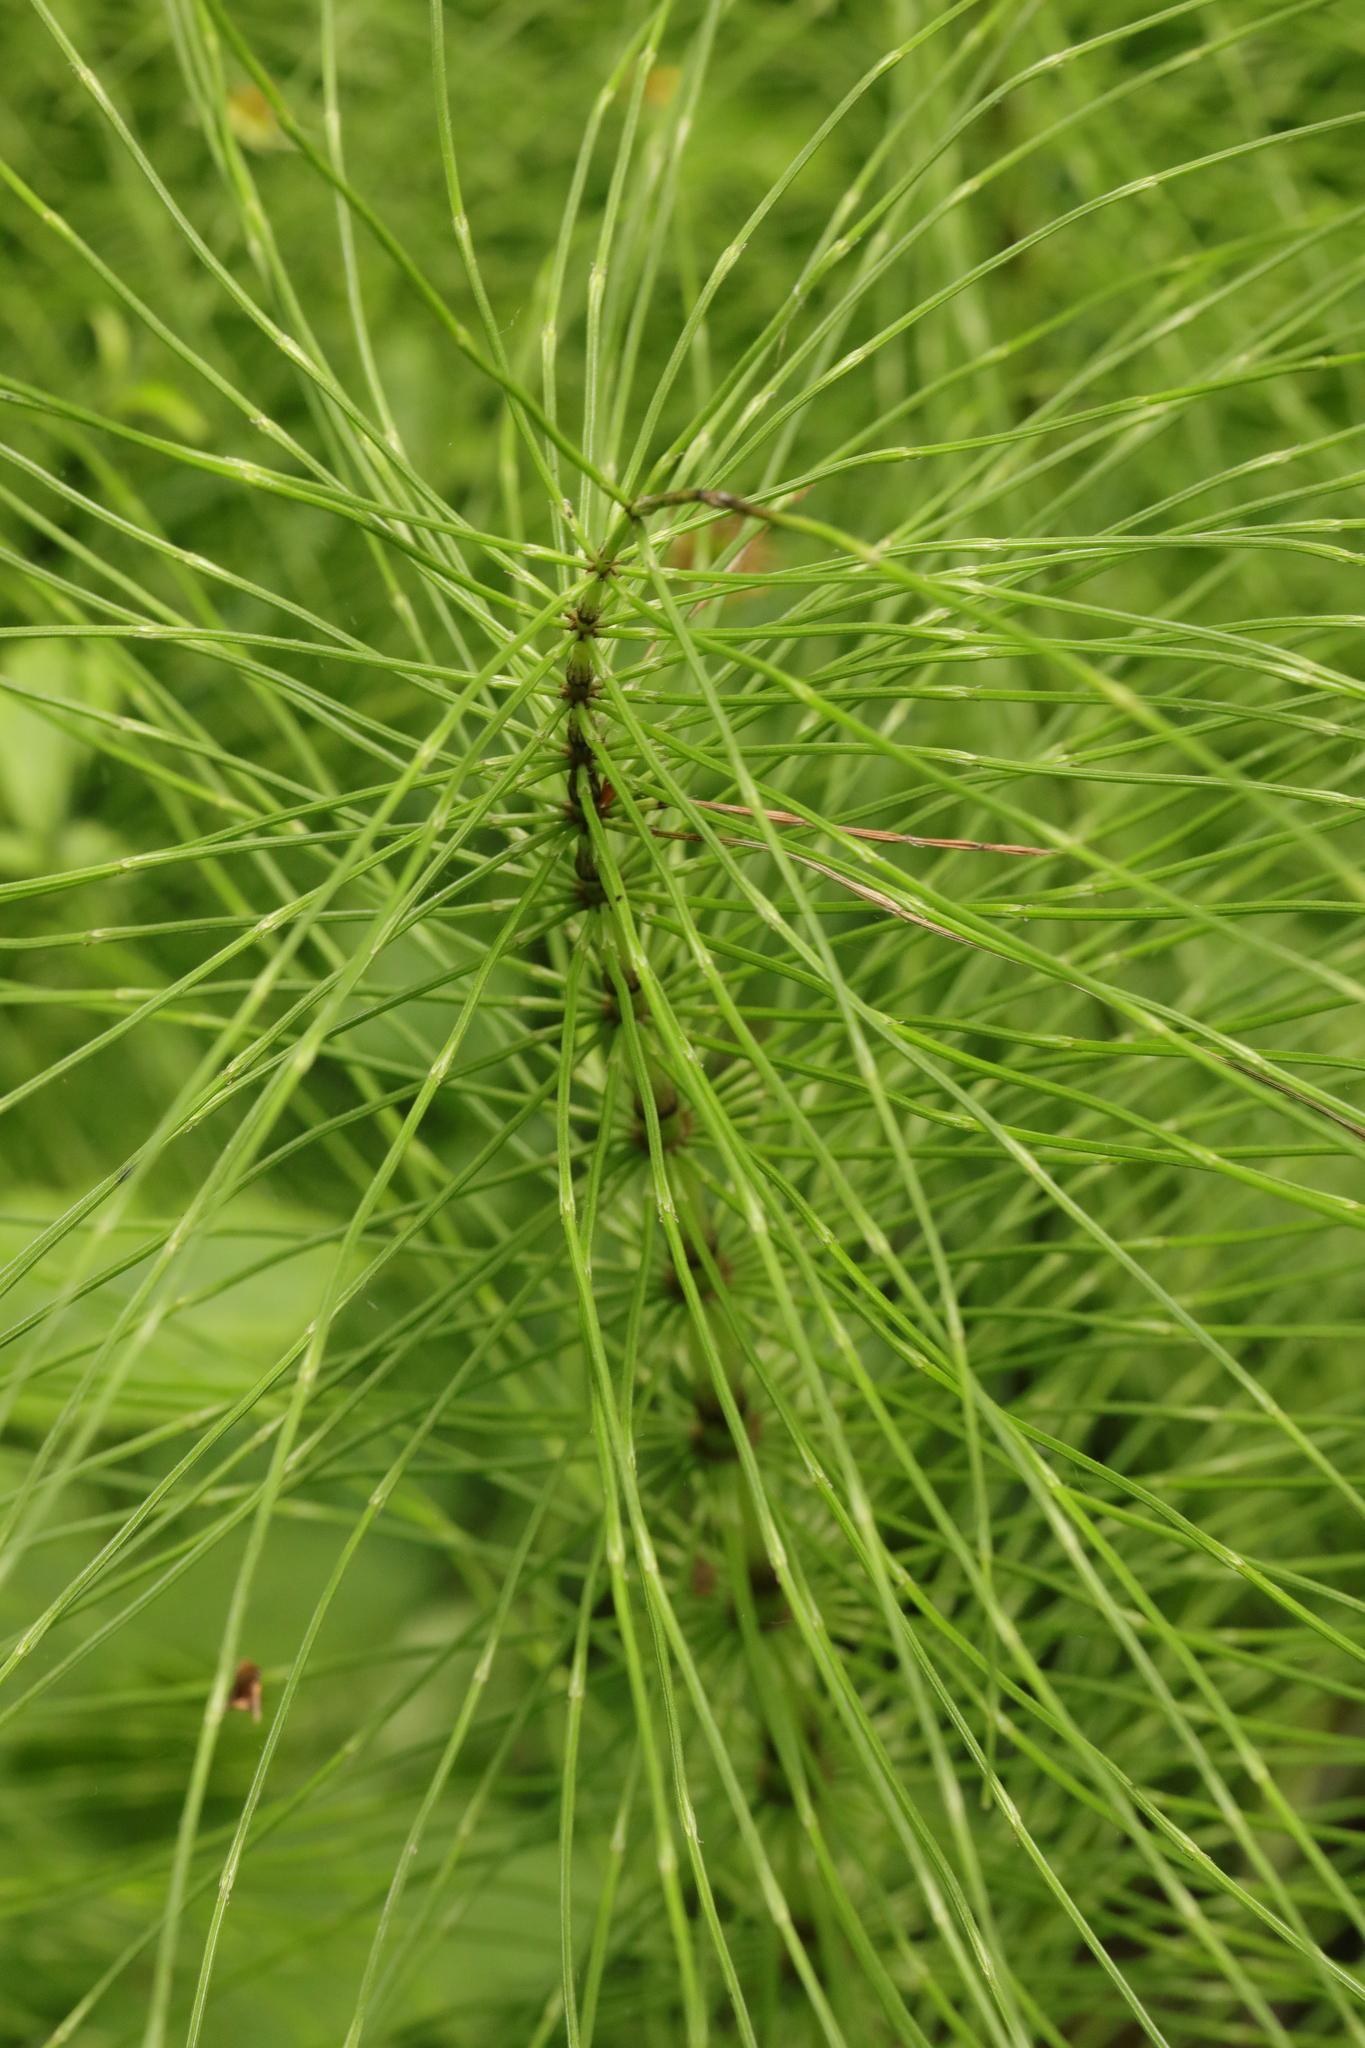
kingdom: Plantae
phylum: Tracheophyta
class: Polypodiopsida
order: Equisetales
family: Equisetaceae
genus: Equisetum
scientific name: Equisetum telmateia
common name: Great horsetail
